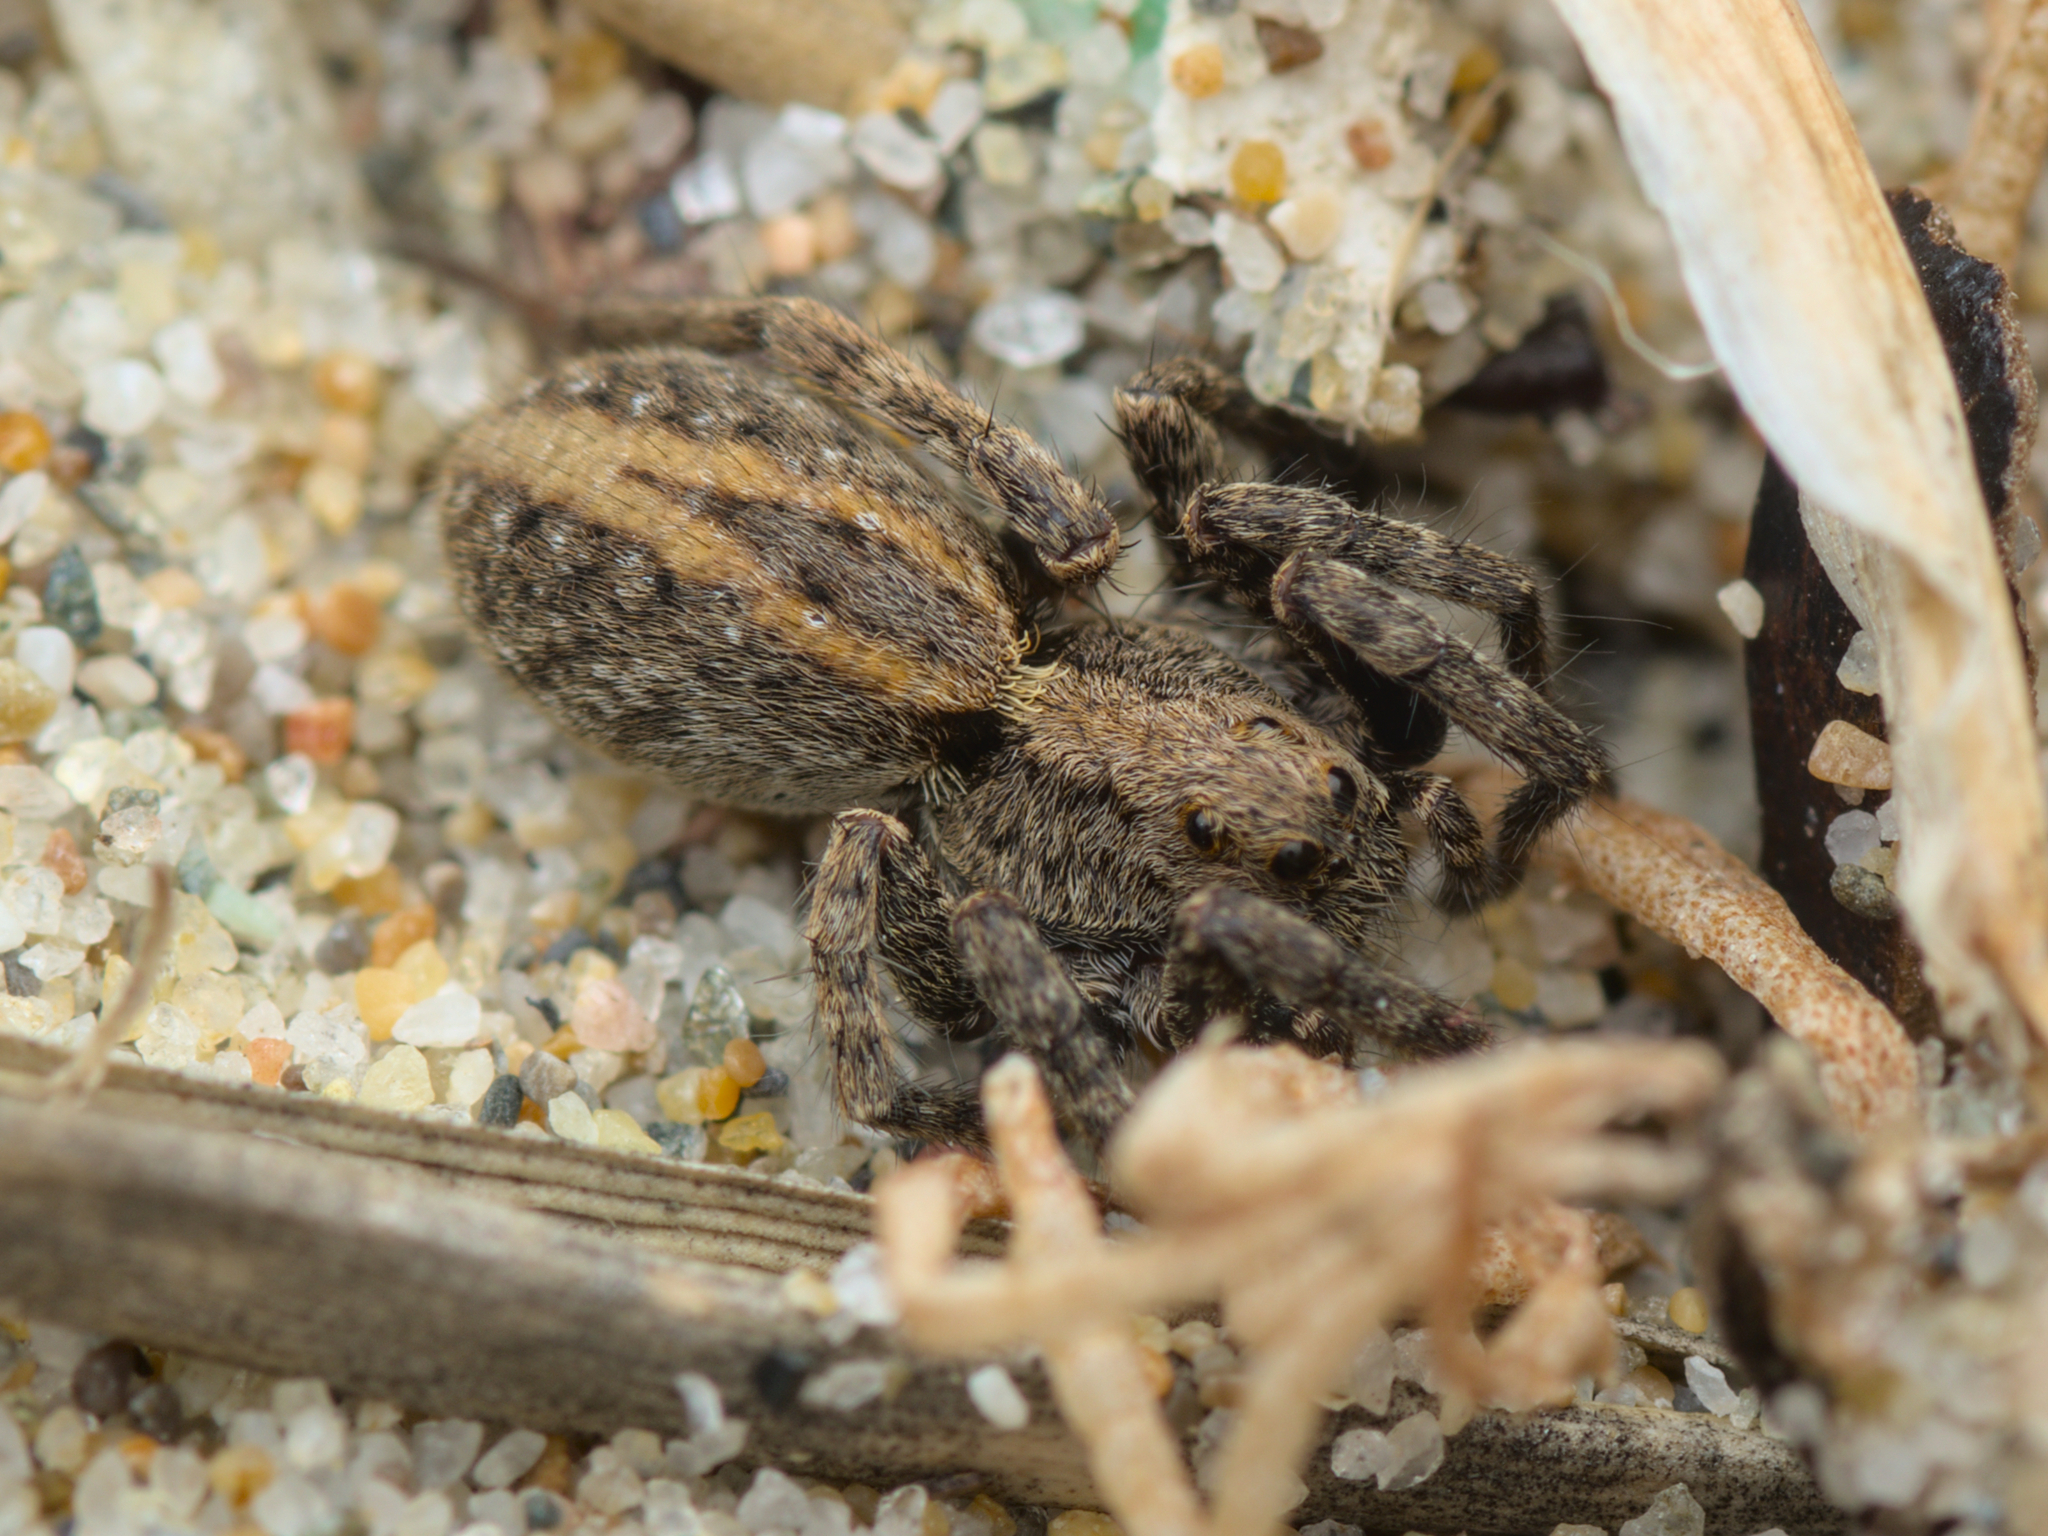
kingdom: Animalia
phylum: Arthropoda
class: Arachnida
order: Araneae
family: Lycosidae
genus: Alopecosa
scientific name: Alopecosa
